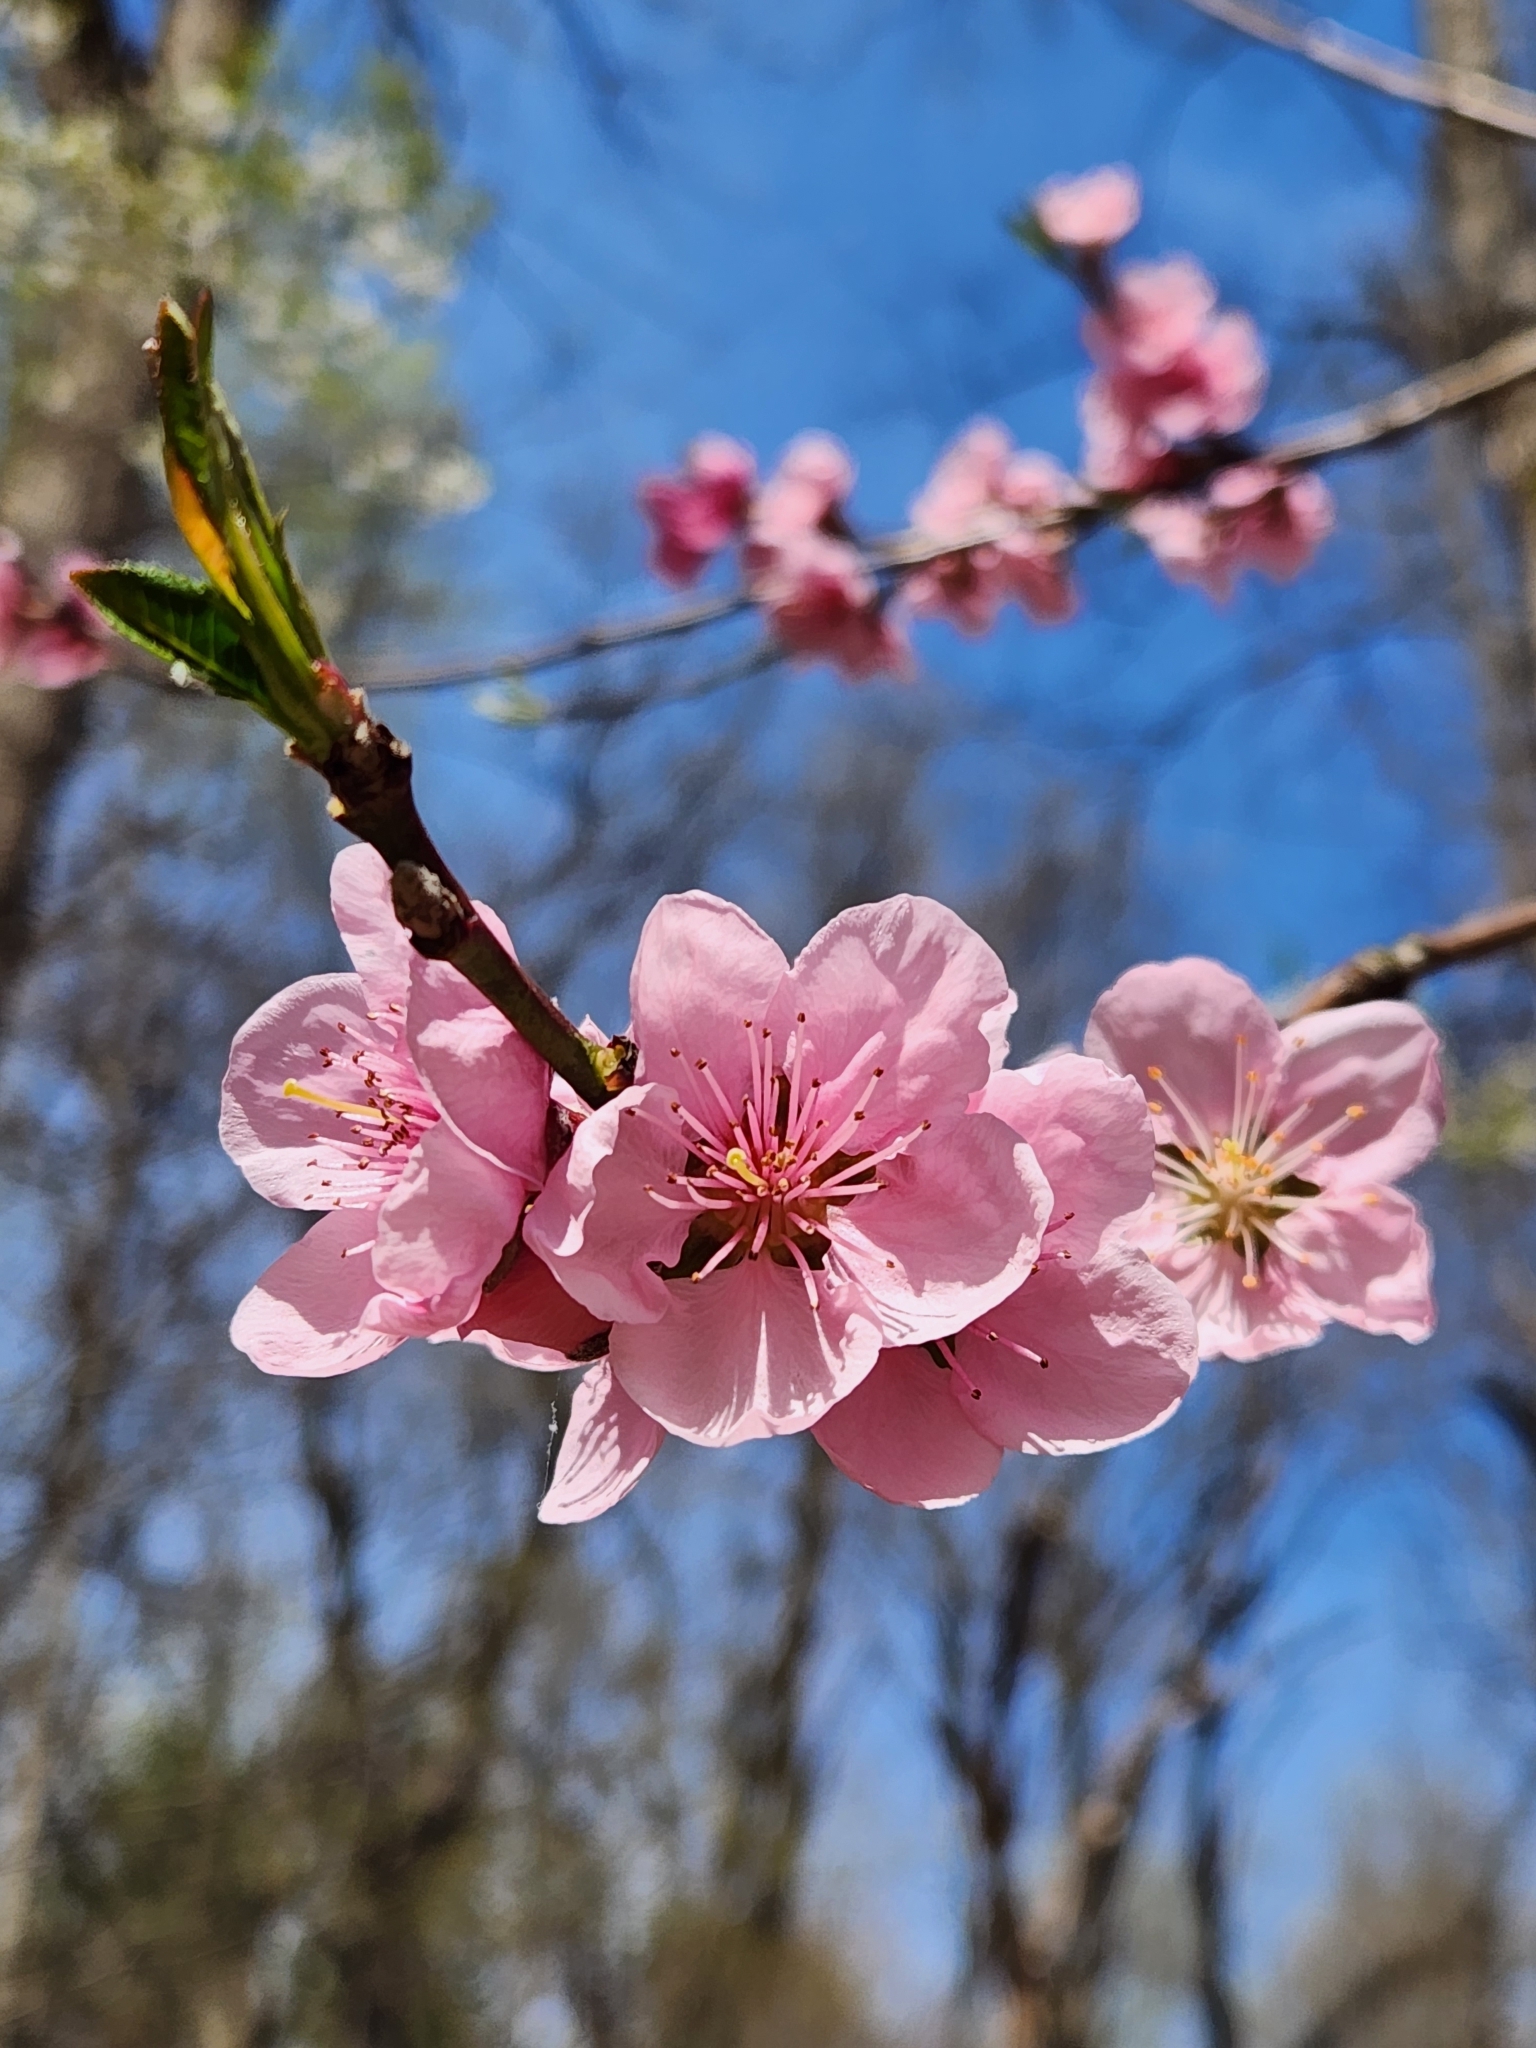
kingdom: Plantae
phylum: Tracheophyta
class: Magnoliopsida
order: Rosales
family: Rosaceae
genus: Prunus
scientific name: Prunus persica
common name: Peach
